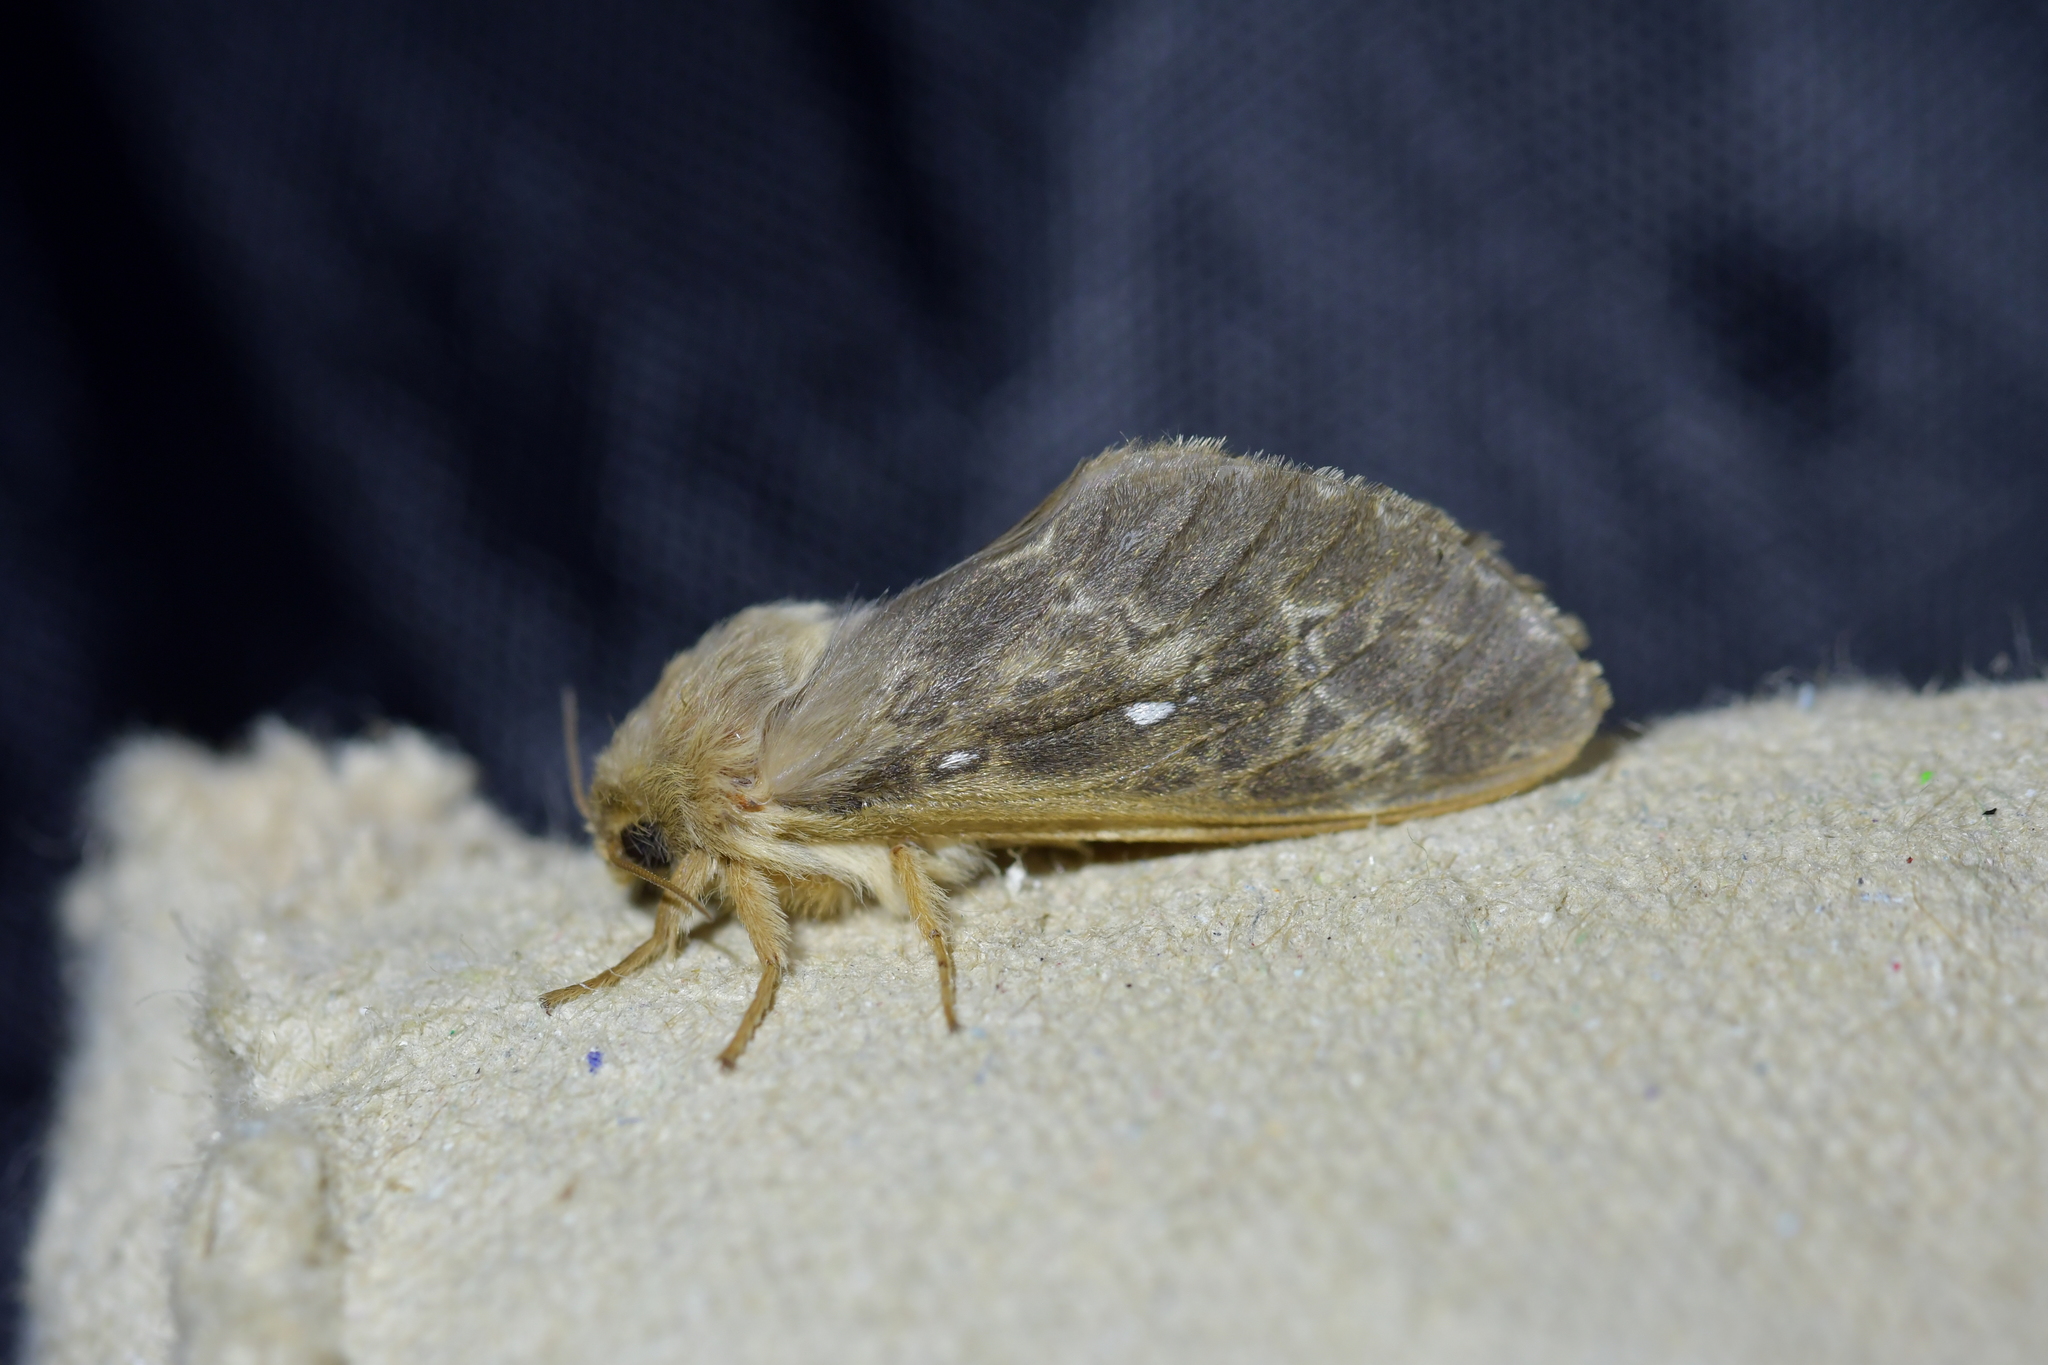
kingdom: Animalia
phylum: Arthropoda
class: Insecta
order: Lepidoptera
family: Hepialidae
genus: Wiseana
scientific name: Wiseana cervinata
